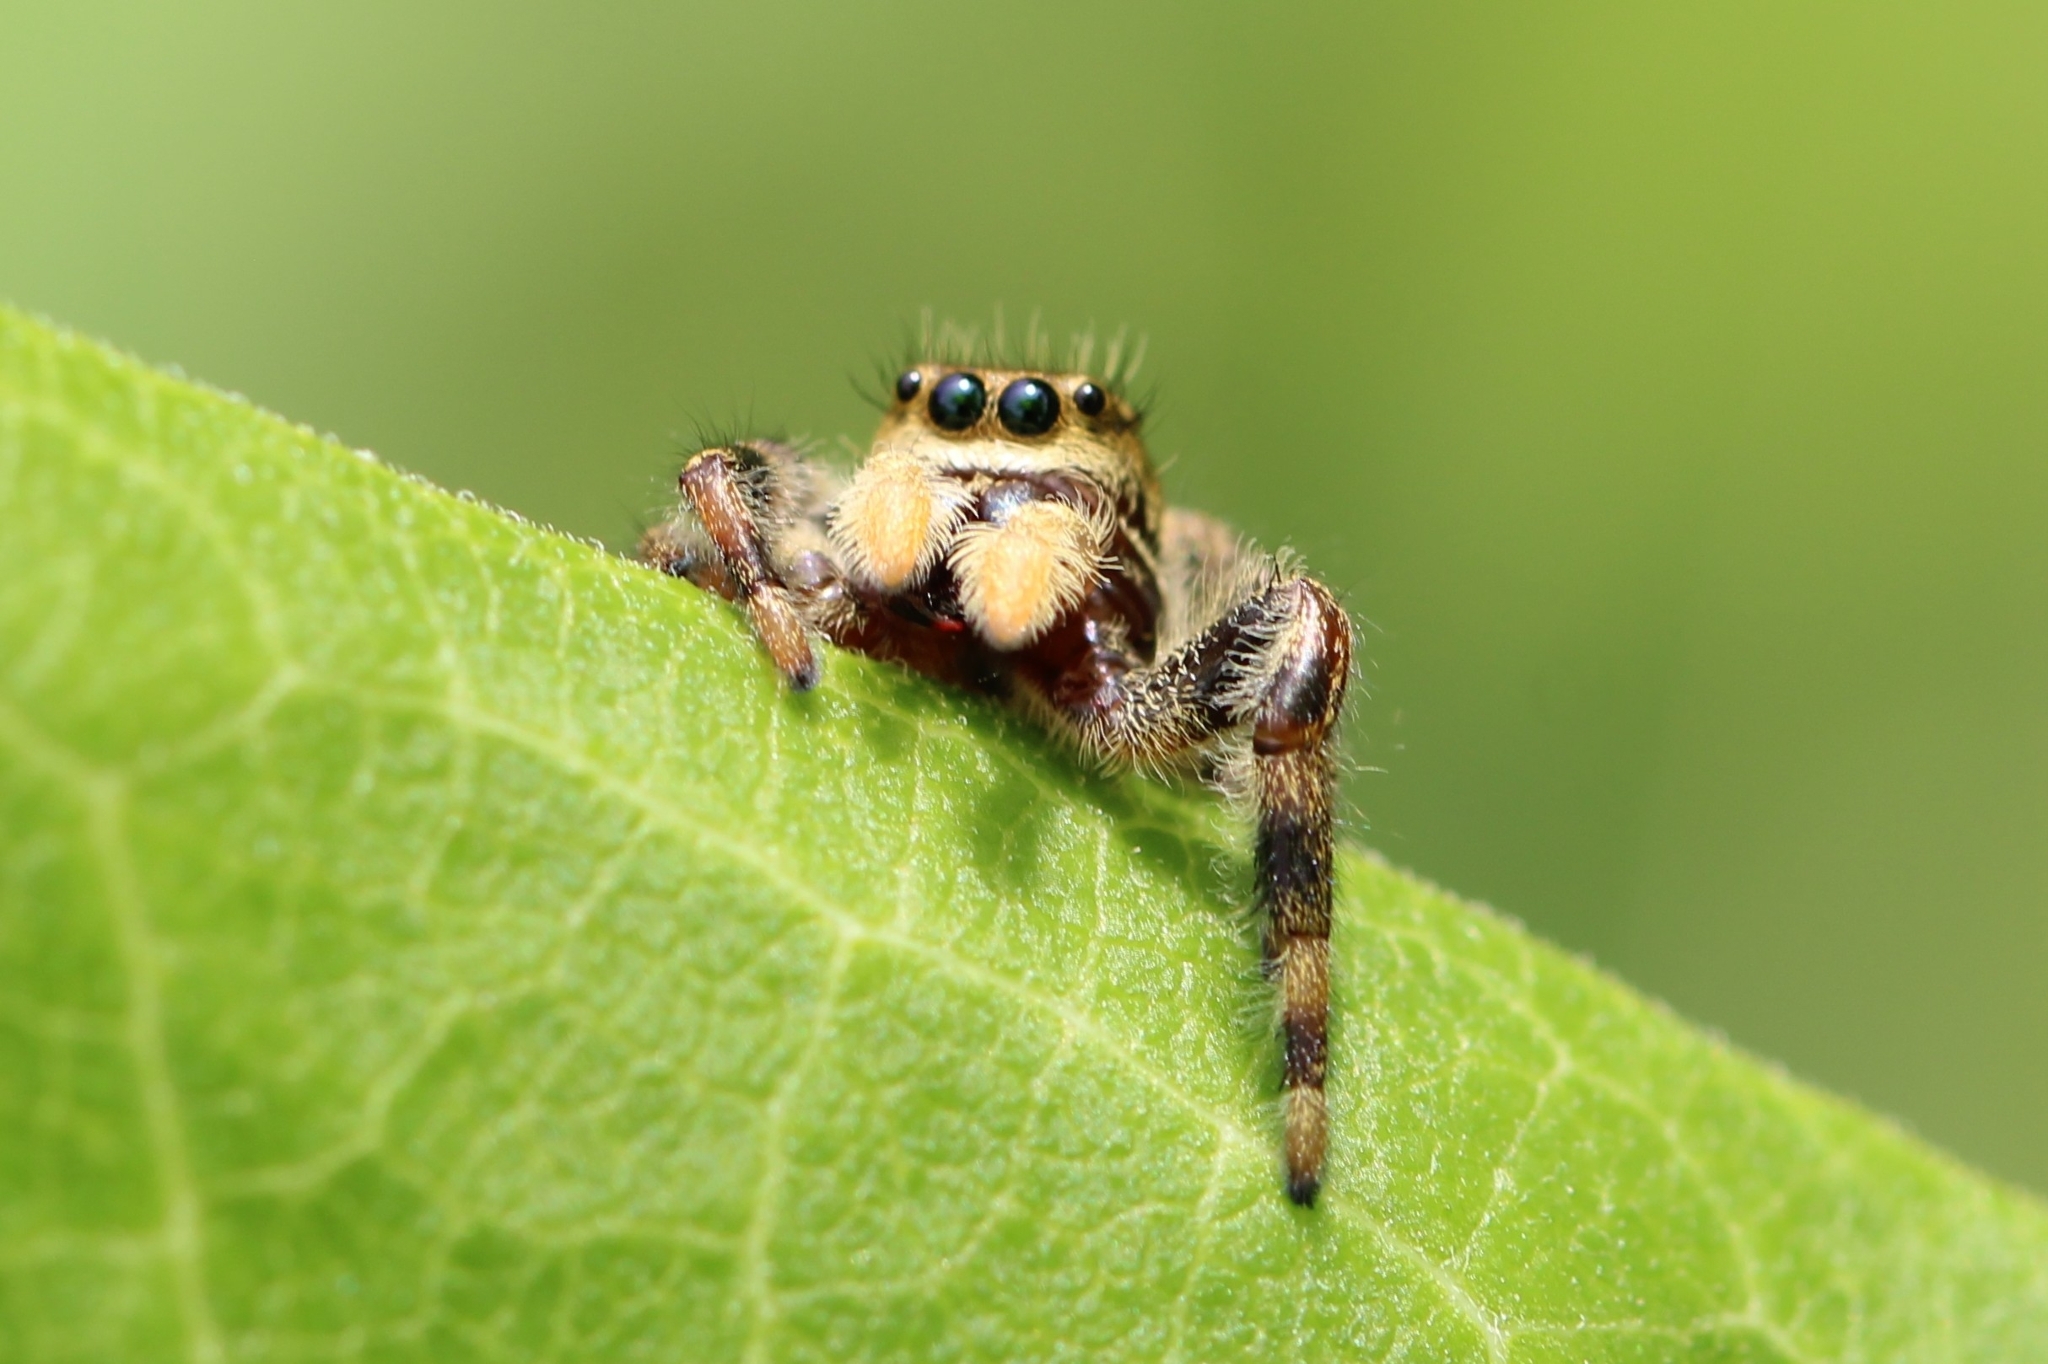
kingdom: Animalia
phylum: Arthropoda
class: Arachnida
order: Araneae
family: Salticidae
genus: Phidippus
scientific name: Phidippus clarus
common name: Brilliant jumping spider
